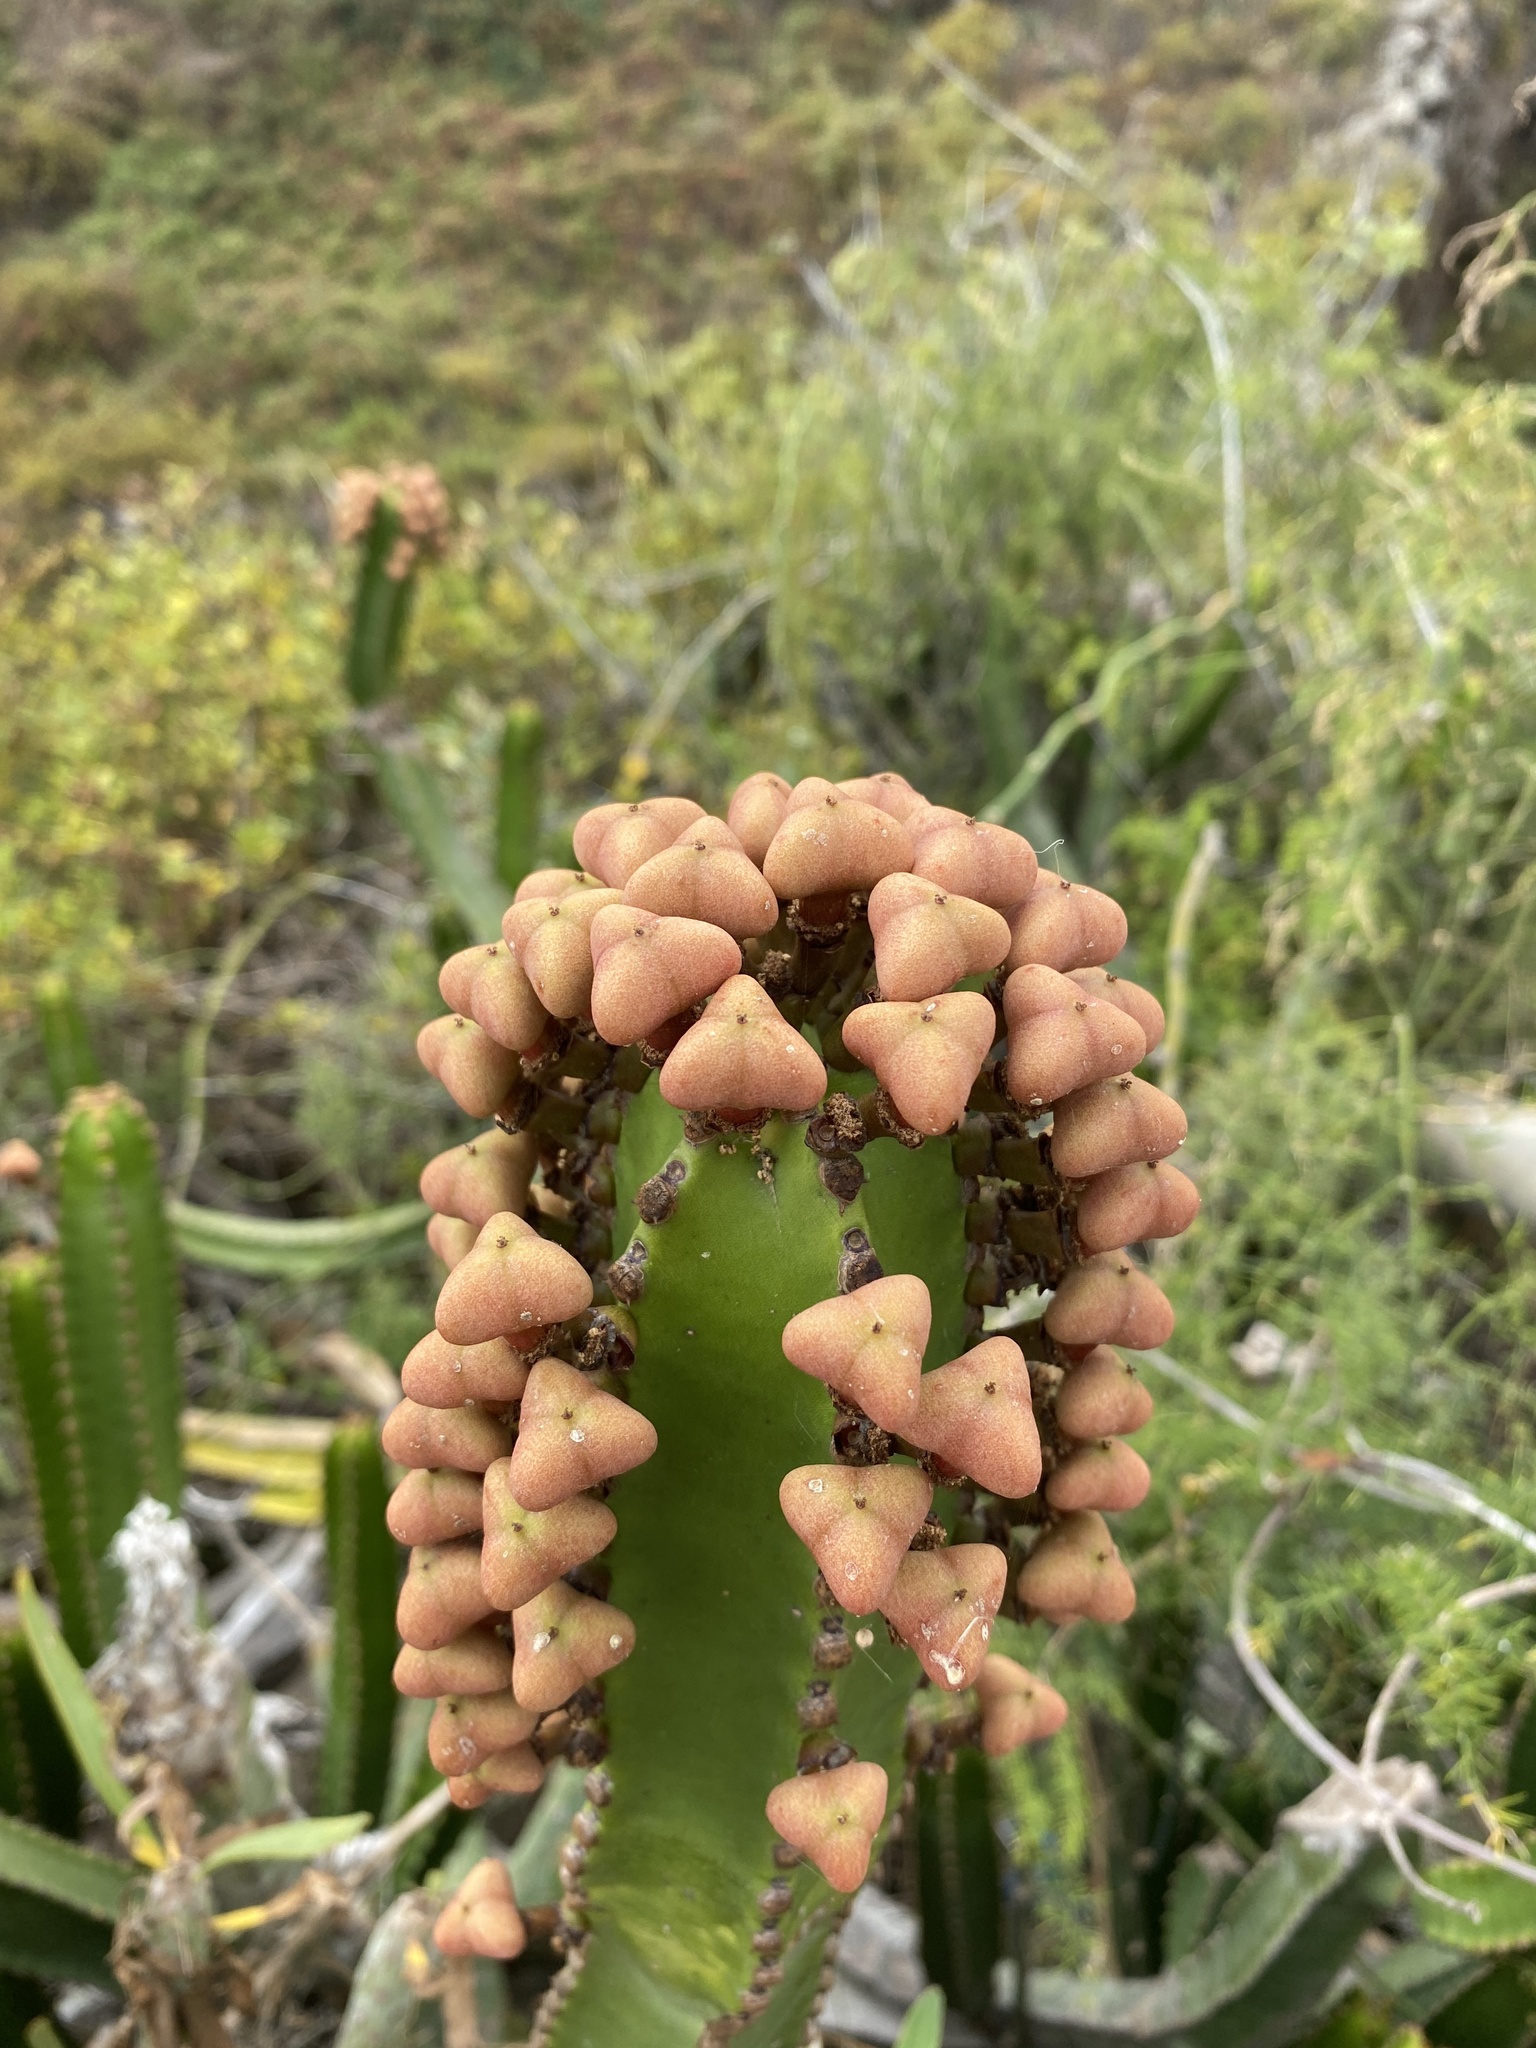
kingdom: Plantae
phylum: Tracheophyta
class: Magnoliopsida
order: Malpighiales
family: Euphorbiaceae
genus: Euphorbia
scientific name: Euphorbia canariensis
